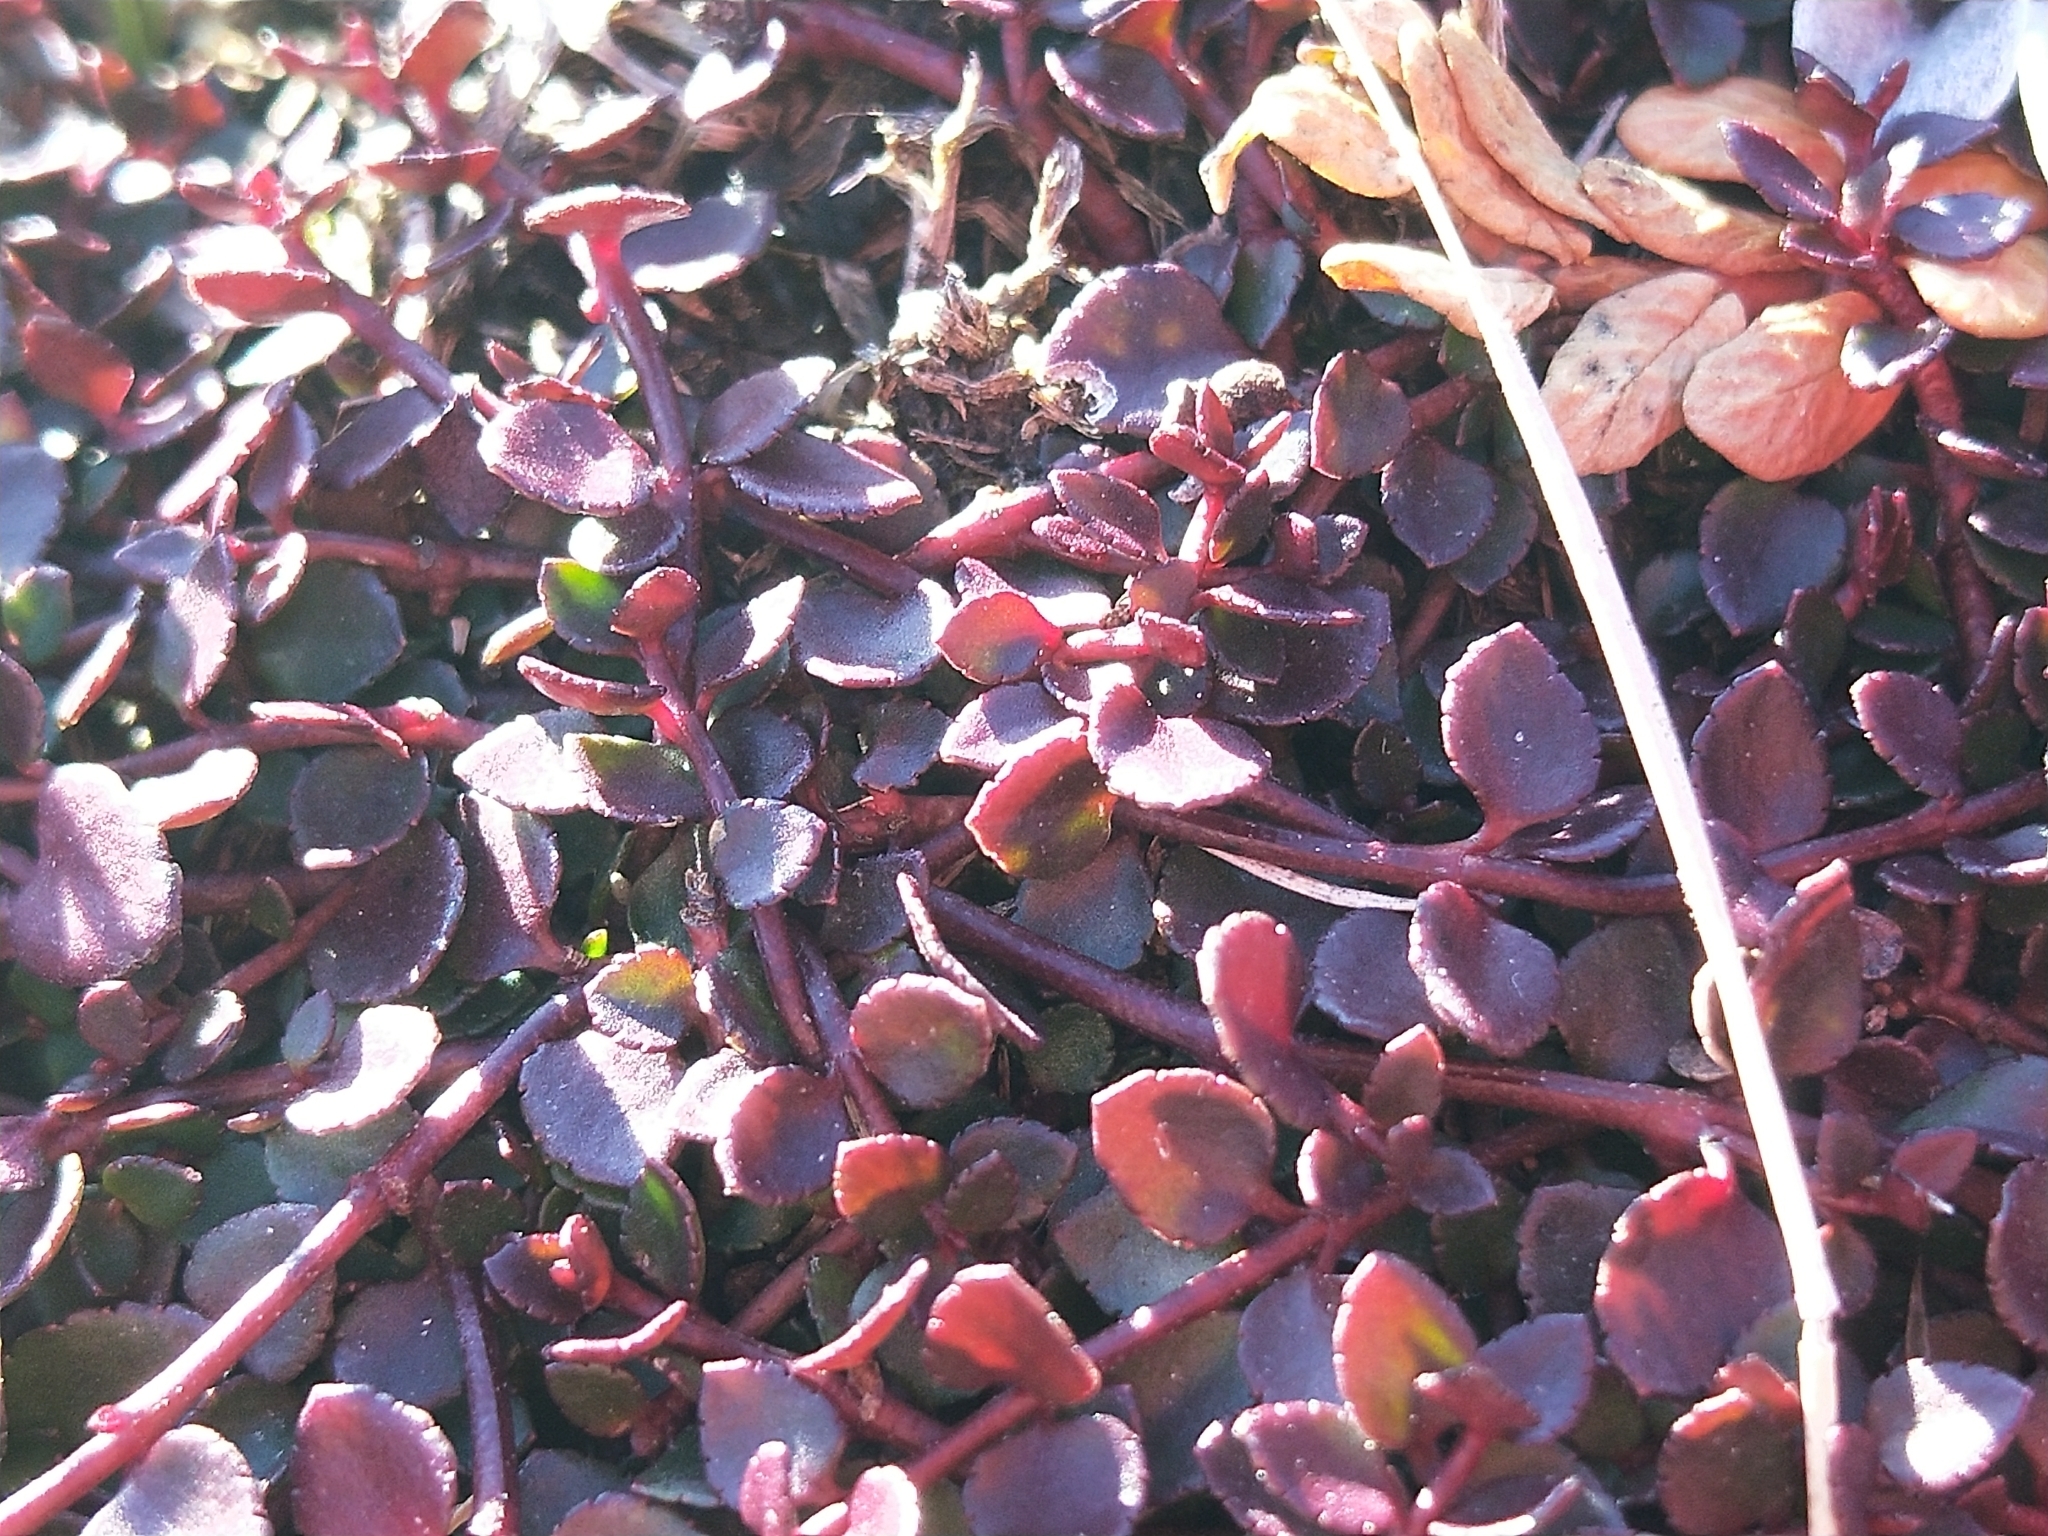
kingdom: Plantae
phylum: Tracheophyta
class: Magnoliopsida
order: Saxifragales
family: Haloragaceae
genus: Gonocarpus
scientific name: Gonocarpus micranthus
